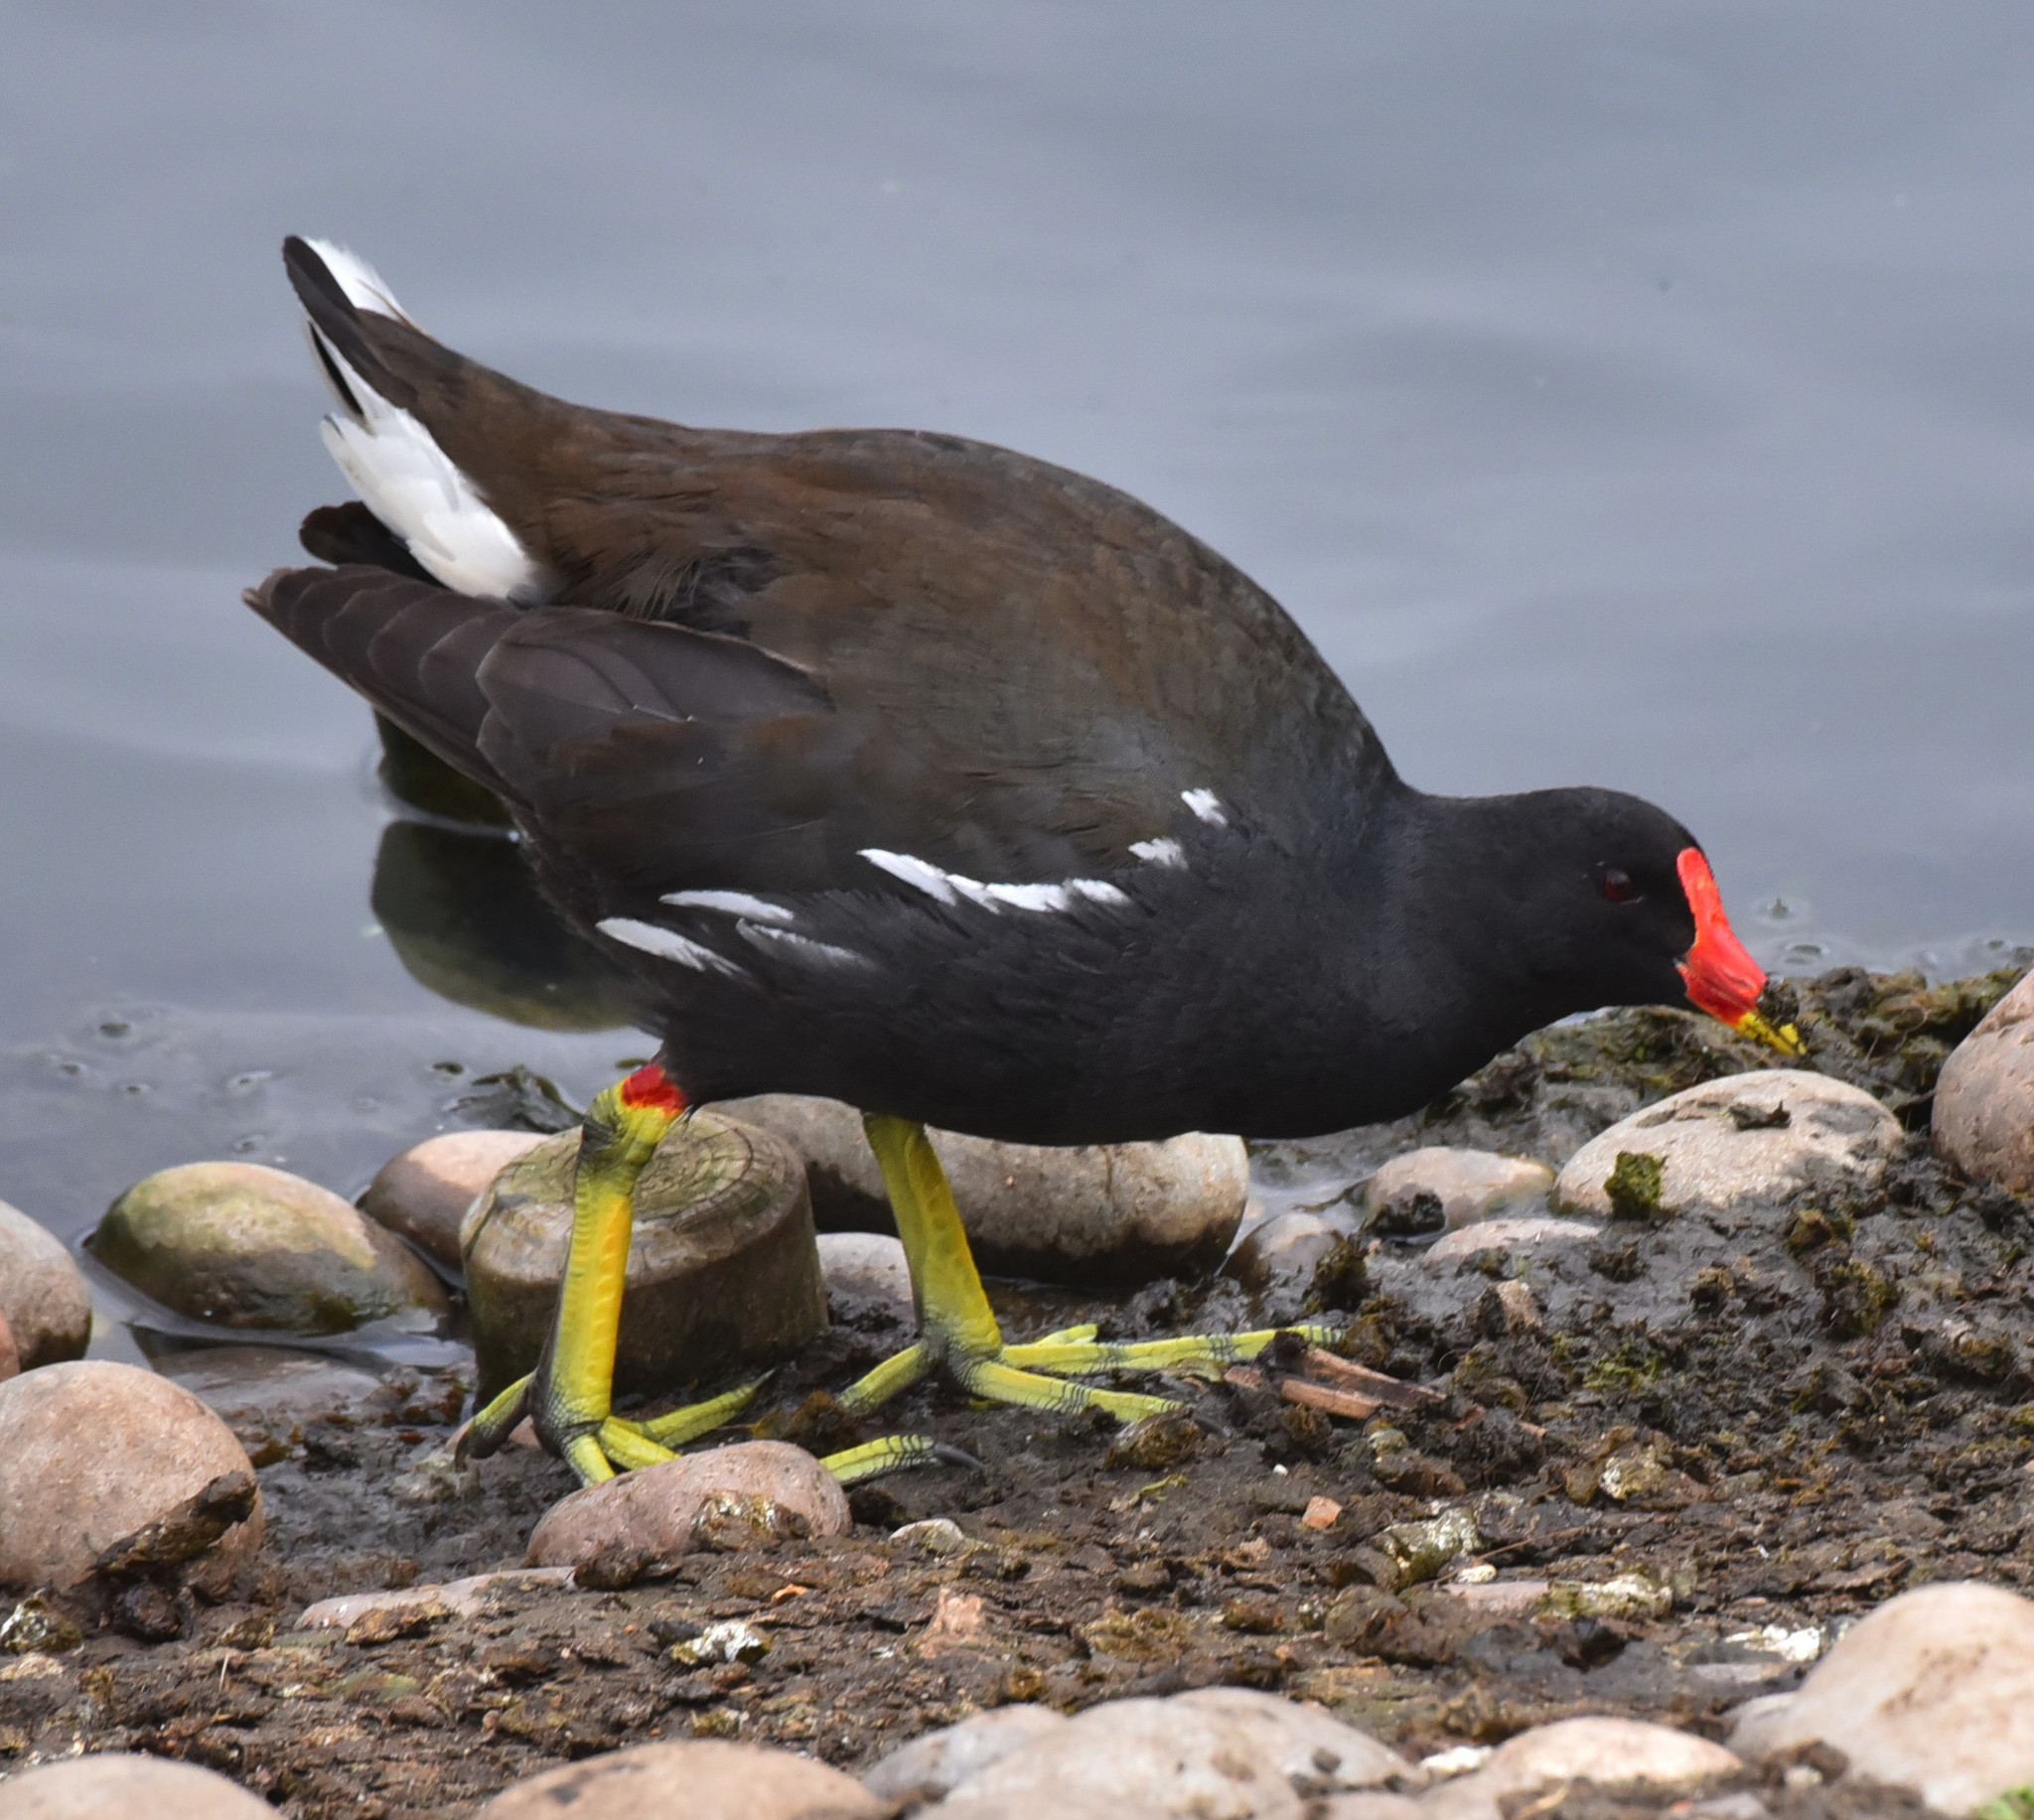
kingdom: Animalia
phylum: Chordata
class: Aves
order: Gruiformes
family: Rallidae
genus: Gallinula
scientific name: Gallinula chloropus
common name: Common moorhen
